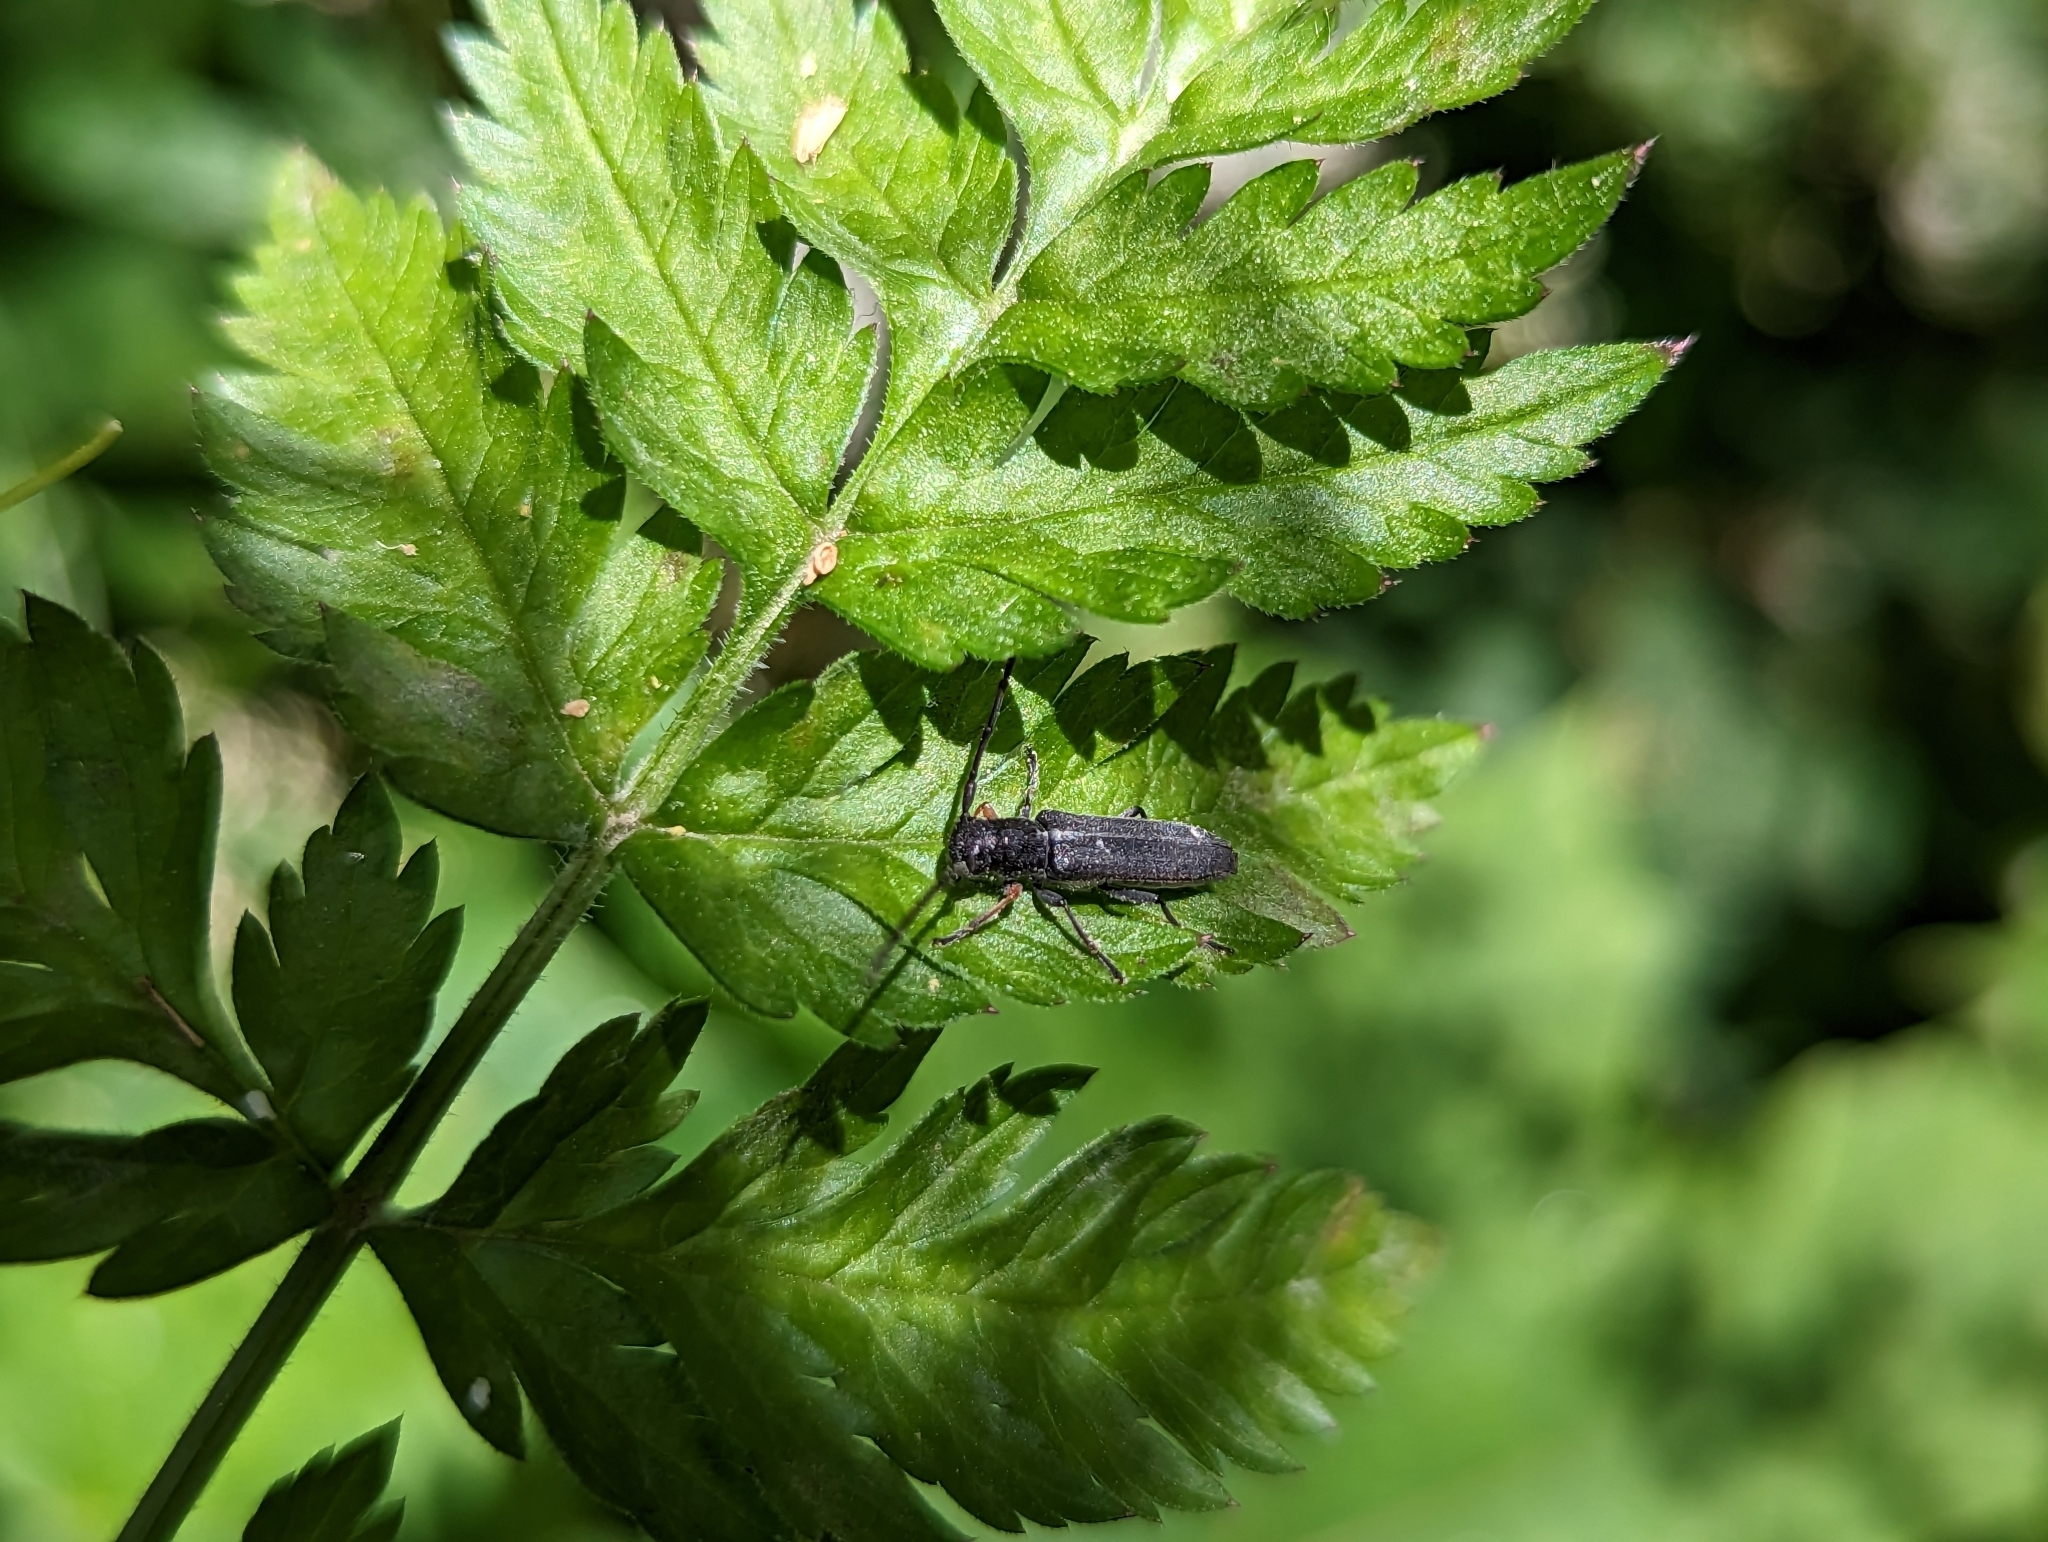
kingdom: Animalia
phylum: Arthropoda
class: Insecta
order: Coleoptera
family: Cerambycidae
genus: Phytoecia
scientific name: Phytoecia cylindrica
